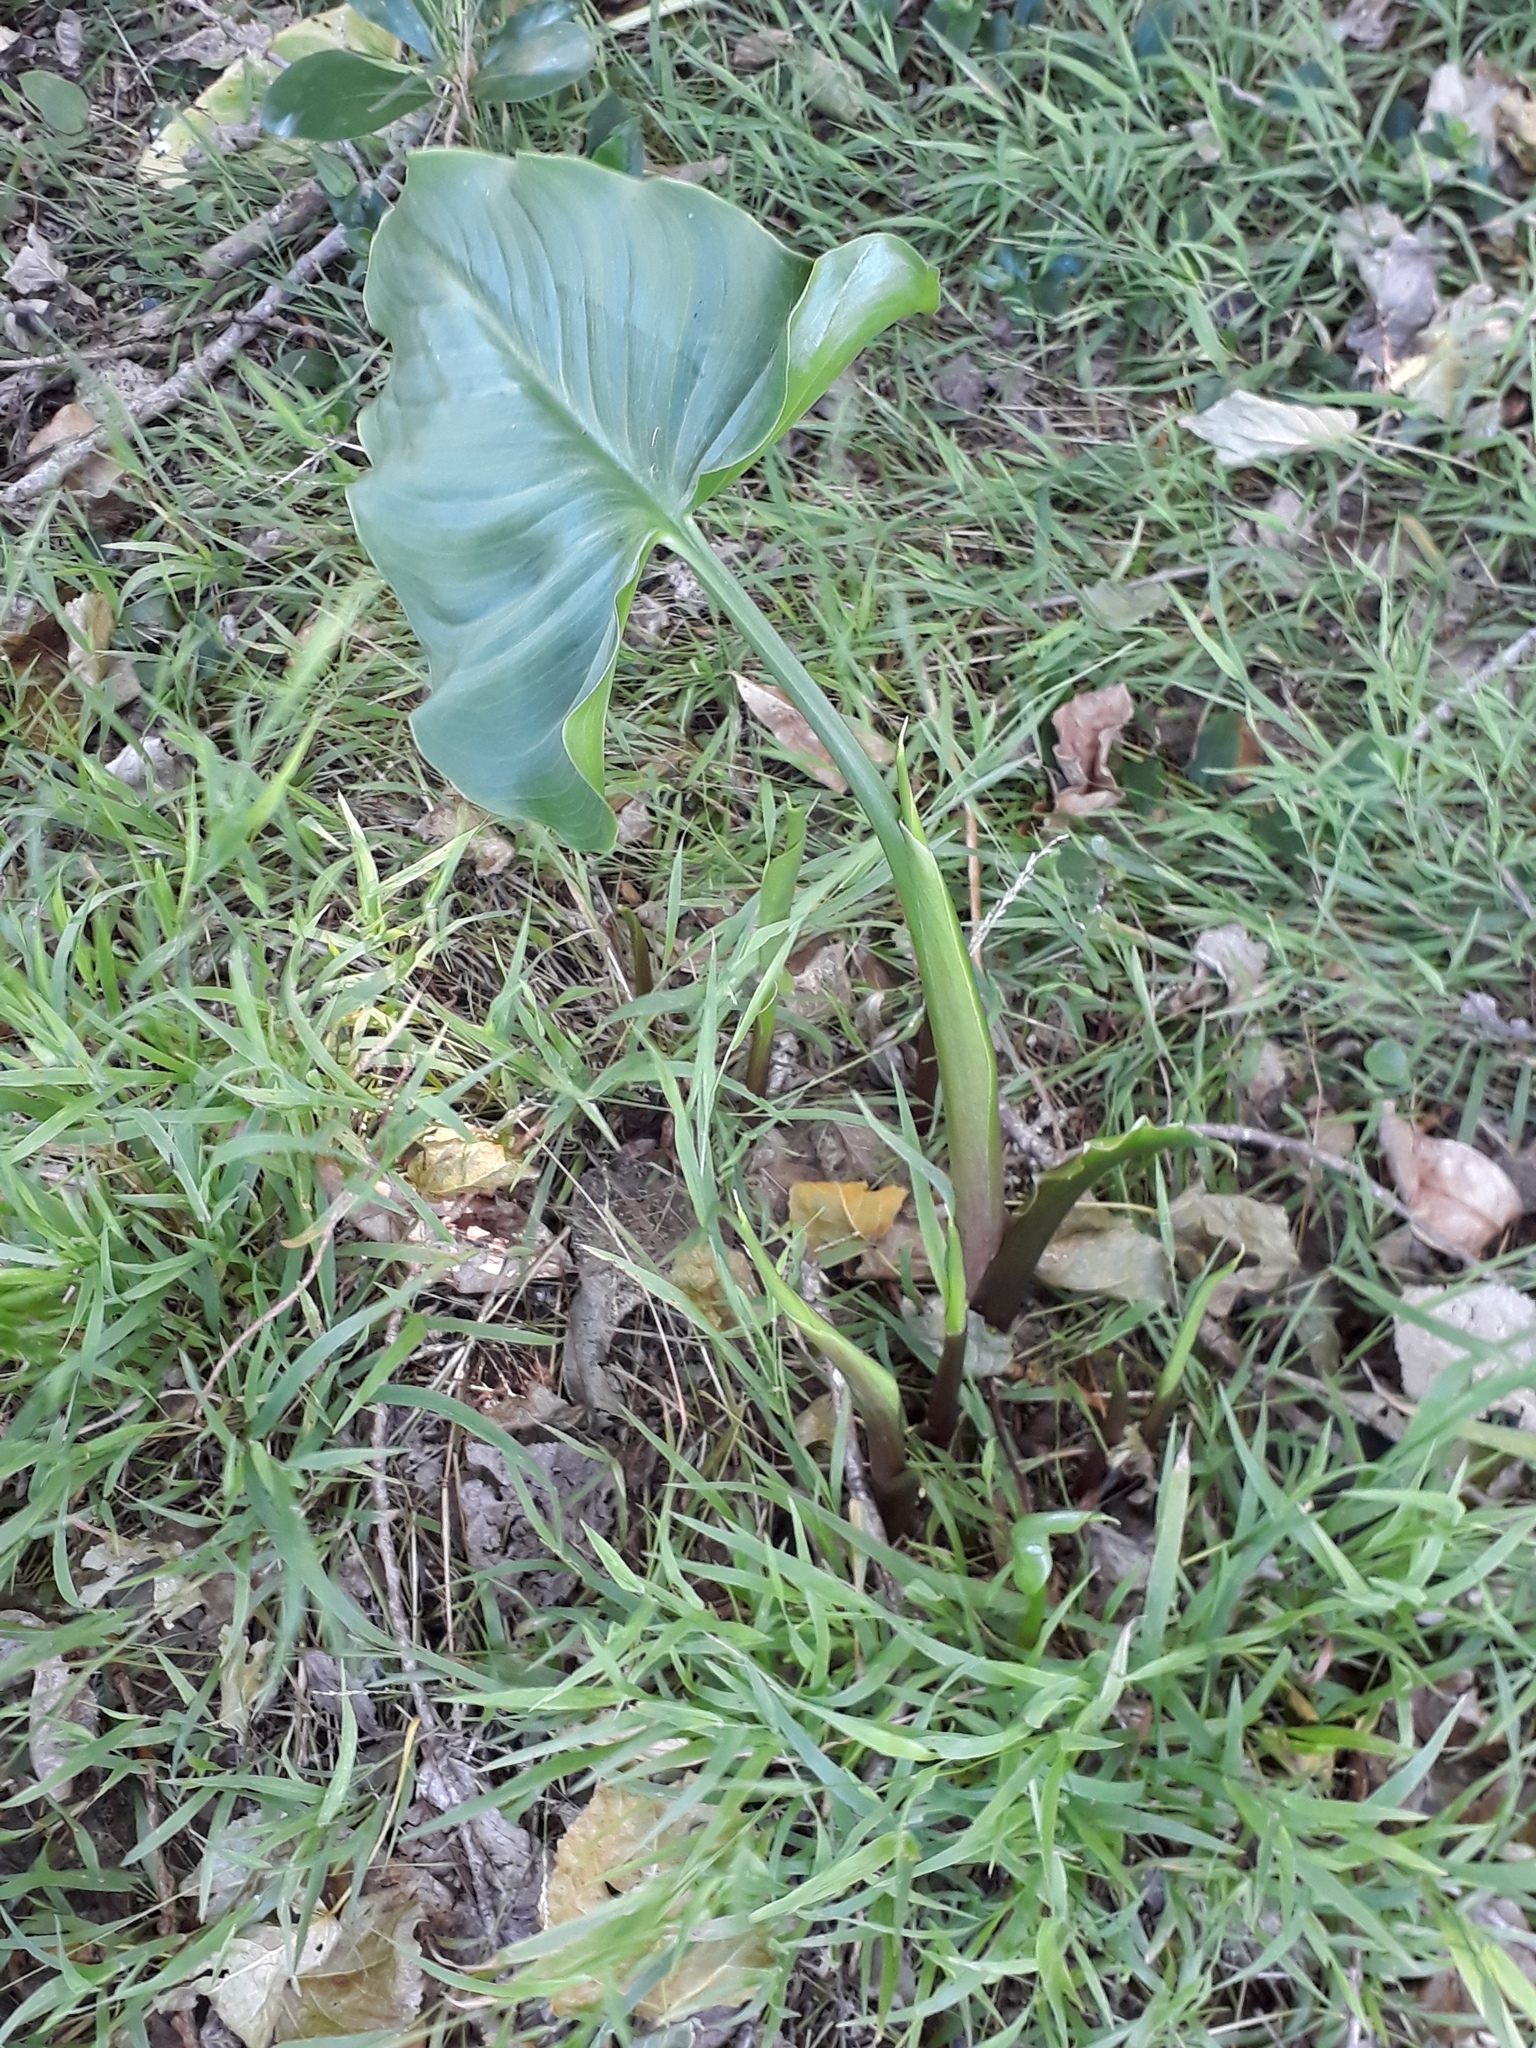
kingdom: Plantae
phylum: Tracheophyta
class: Liliopsida
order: Alismatales
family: Araceae
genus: Zantedeschia
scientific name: Zantedeschia aethiopica
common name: Altar-lily
